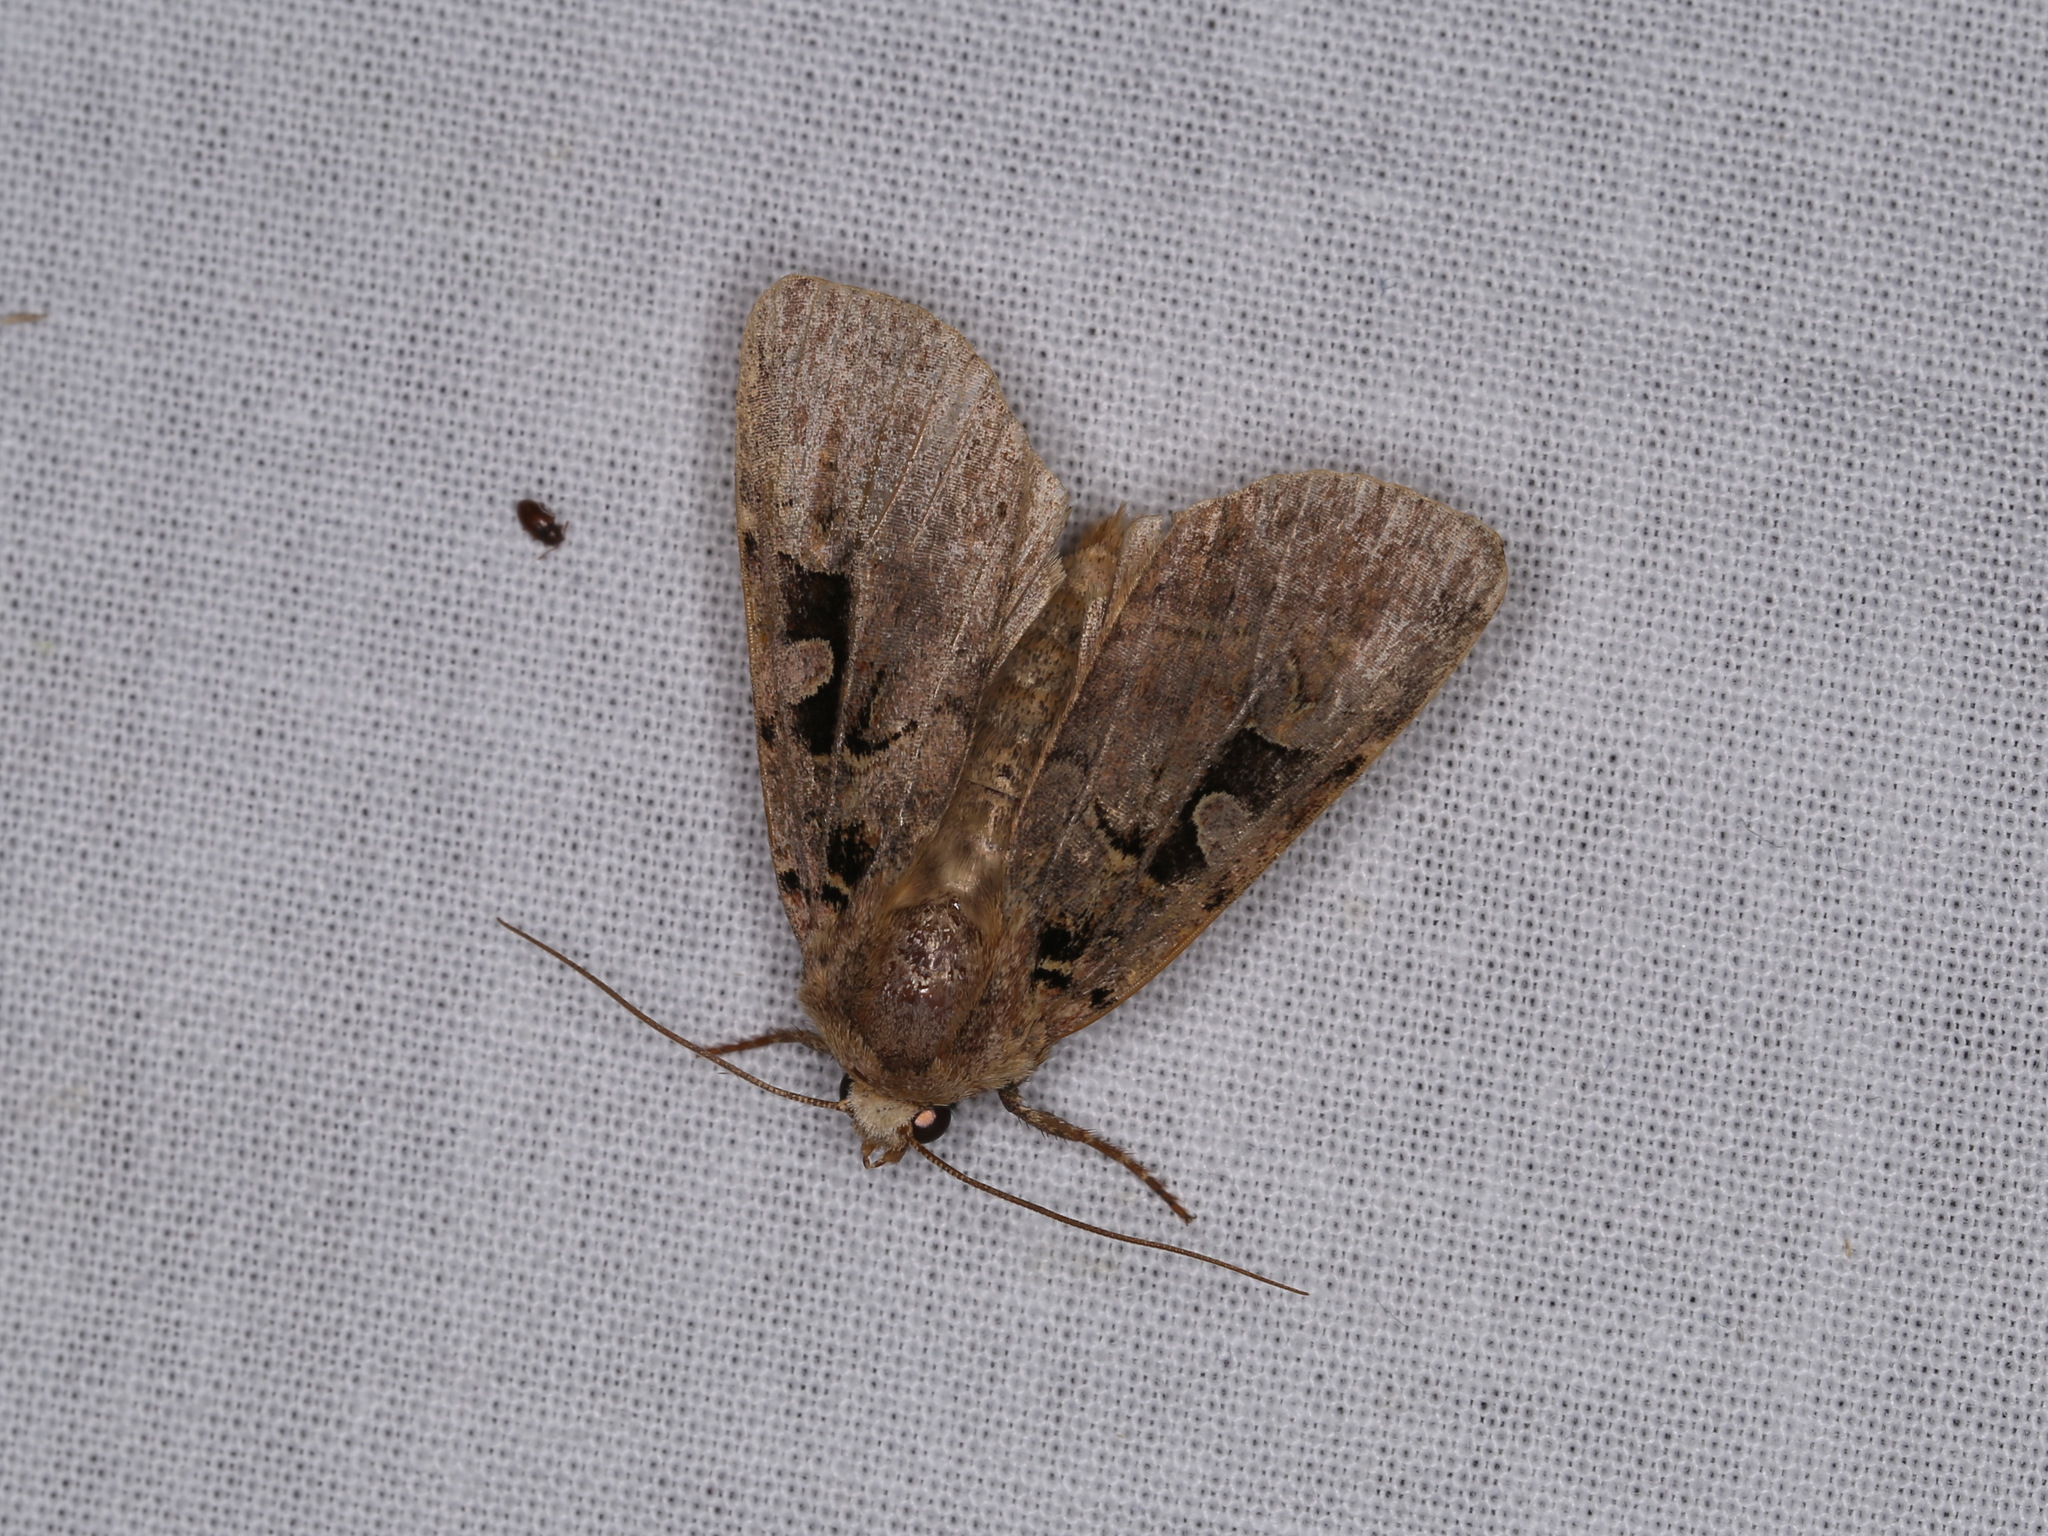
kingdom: Animalia
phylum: Arthropoda
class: Insecta
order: Lepidoptera
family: Noctuidae
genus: Xestia
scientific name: Xestia triangulum
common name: Double square-spot
